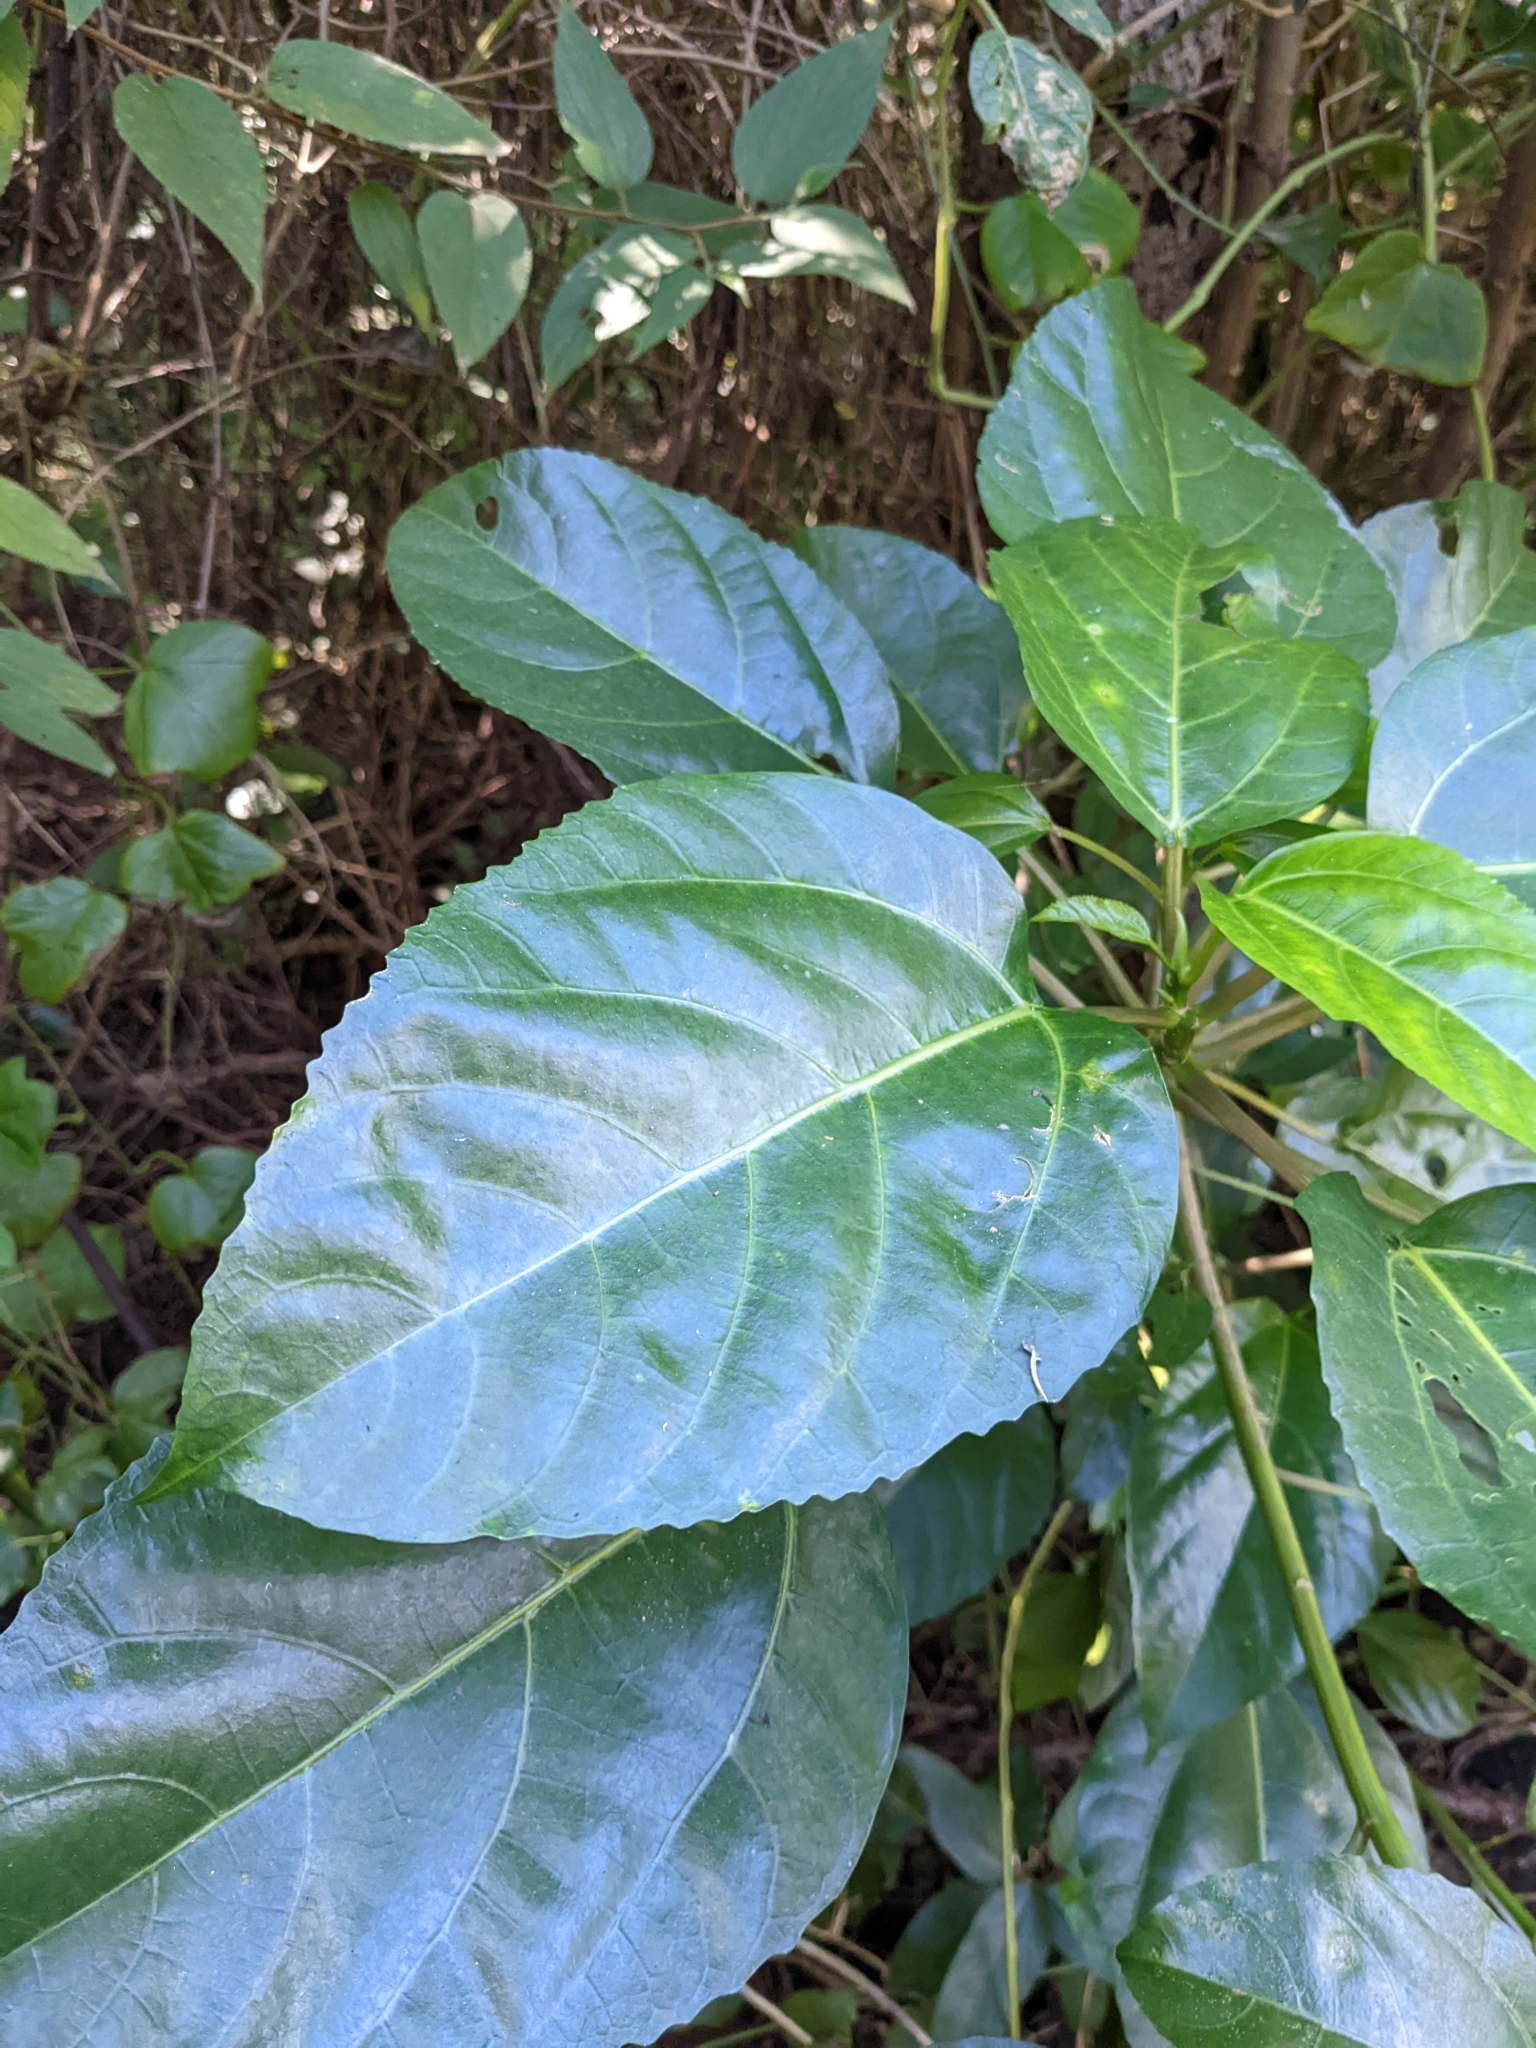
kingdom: Plantae
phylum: Tracheophyta
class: Magnoliopsida
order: Rosales
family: Urticaceae
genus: Dendrocnide
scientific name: Dendrocnide photiniphylla
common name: Shiny-leaved stinging tree
